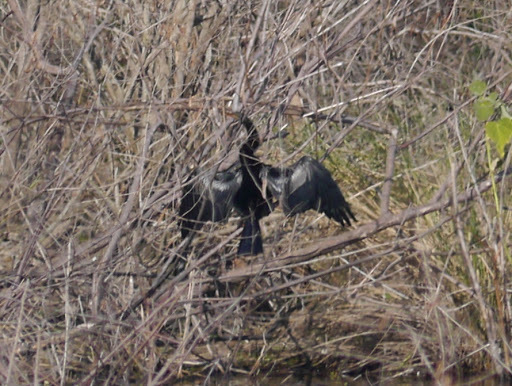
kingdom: Animalia
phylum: Chordata
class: Aves
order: Suliformes
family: Anhingidae
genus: Anhinga
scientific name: Anhinga anhinga
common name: Anhinga
